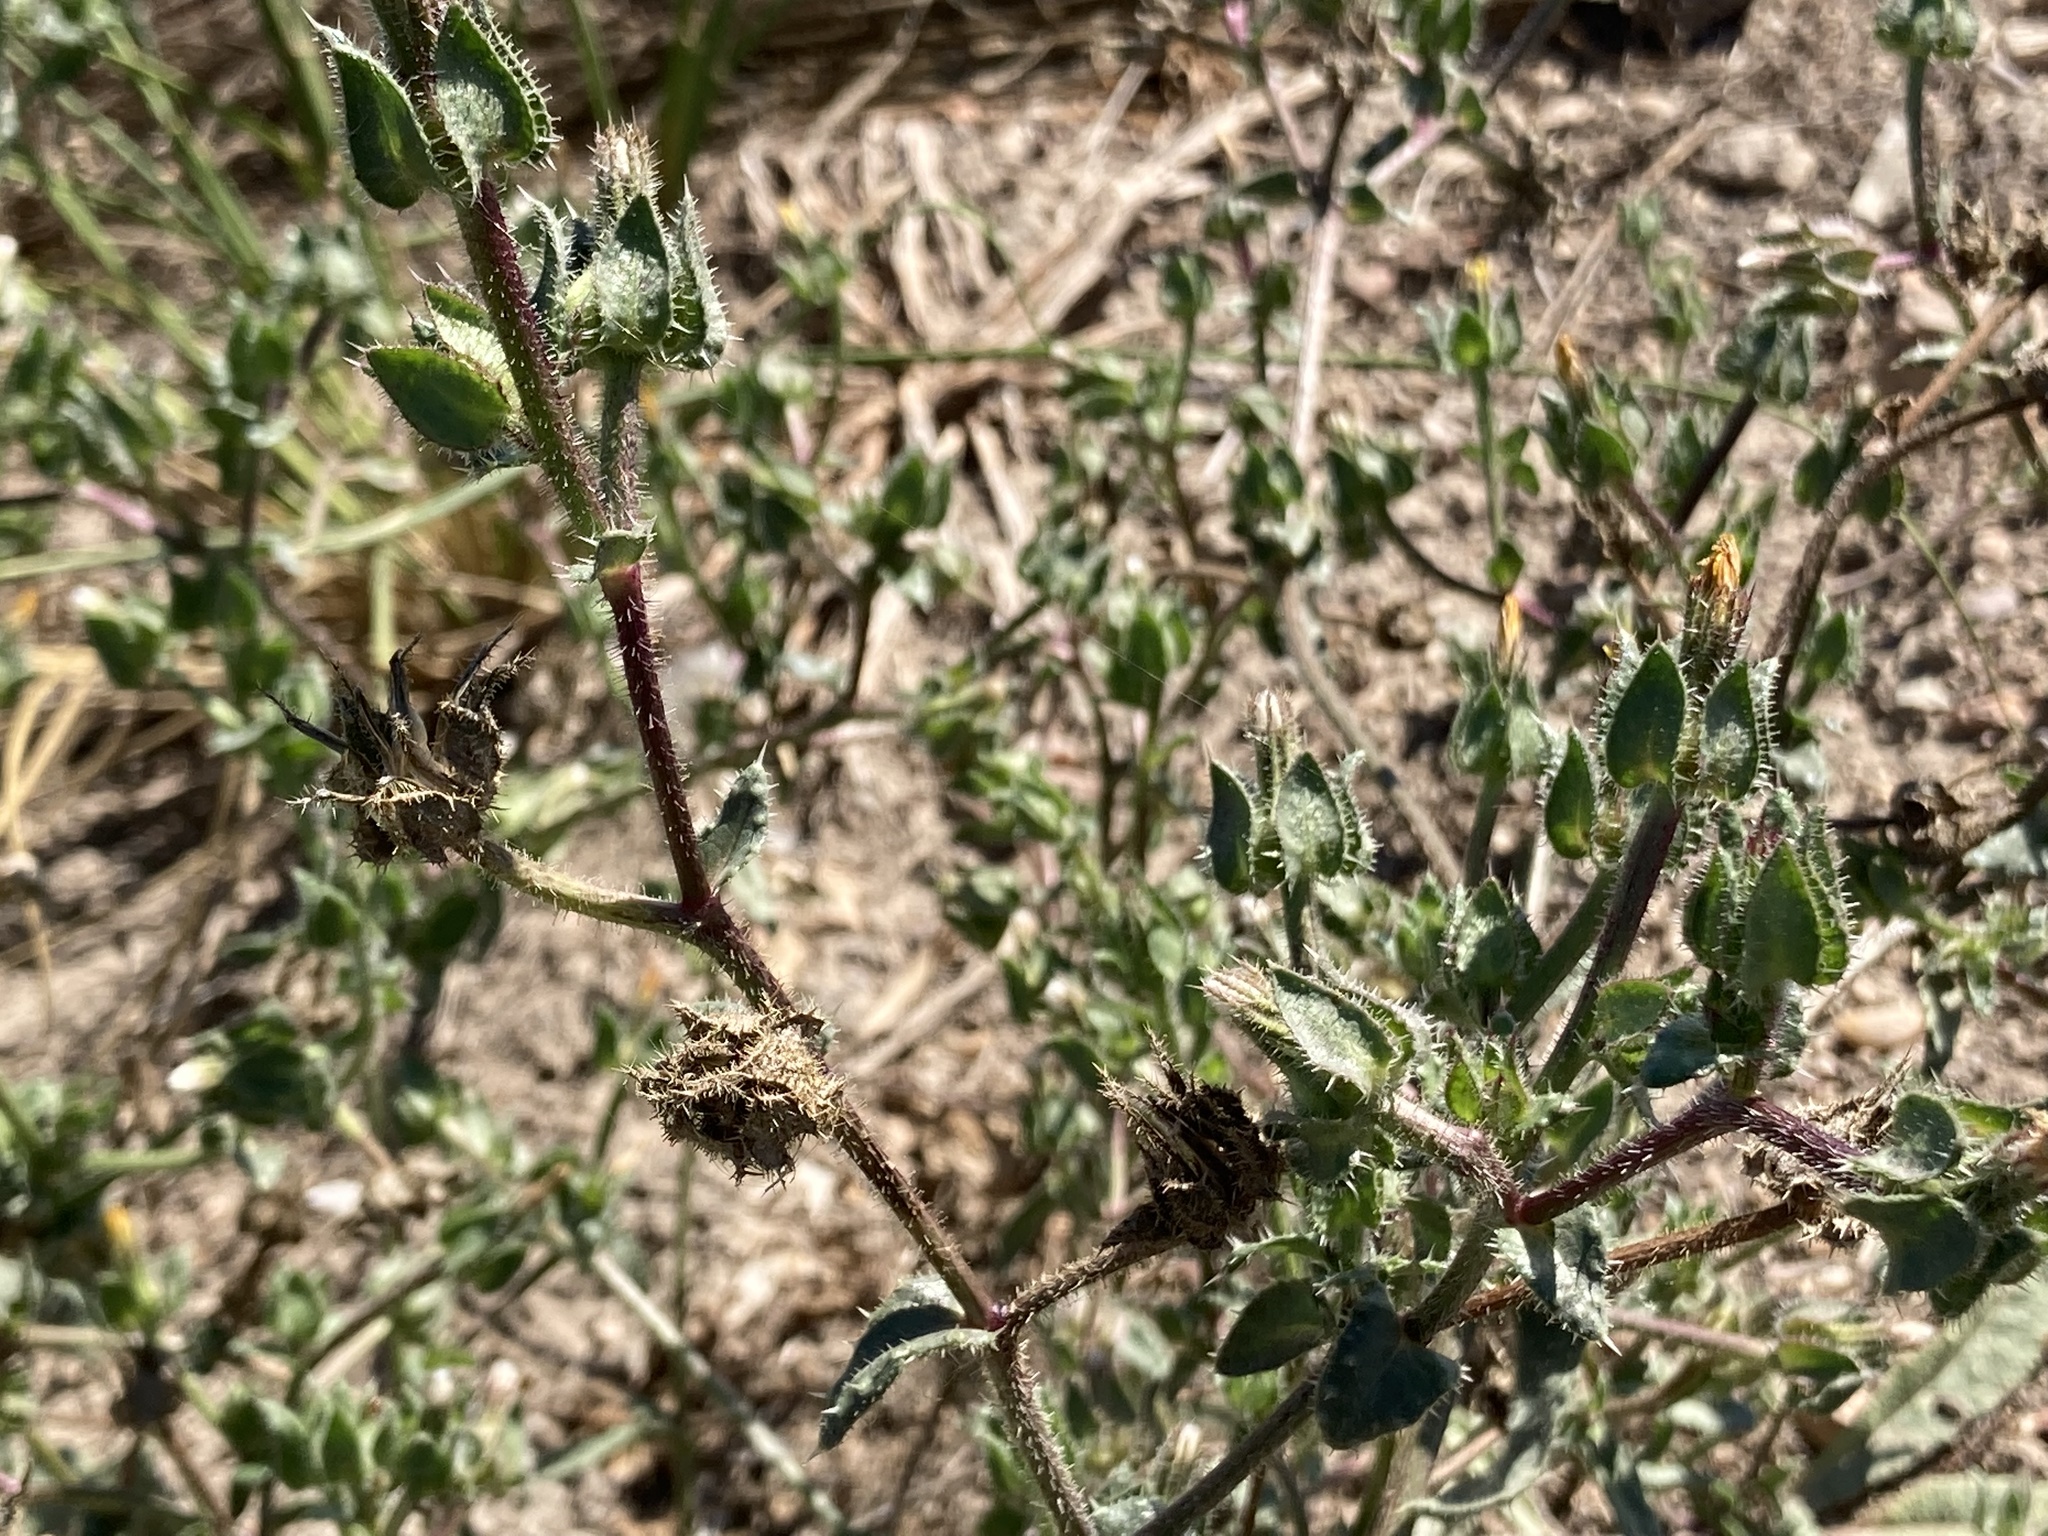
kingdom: Plantae
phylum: Tracheophyta
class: Magnoliopsida
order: Asterales
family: Asteraceae
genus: Helminthotheca
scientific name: Helminthotheca echioides
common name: Ox-tongue
